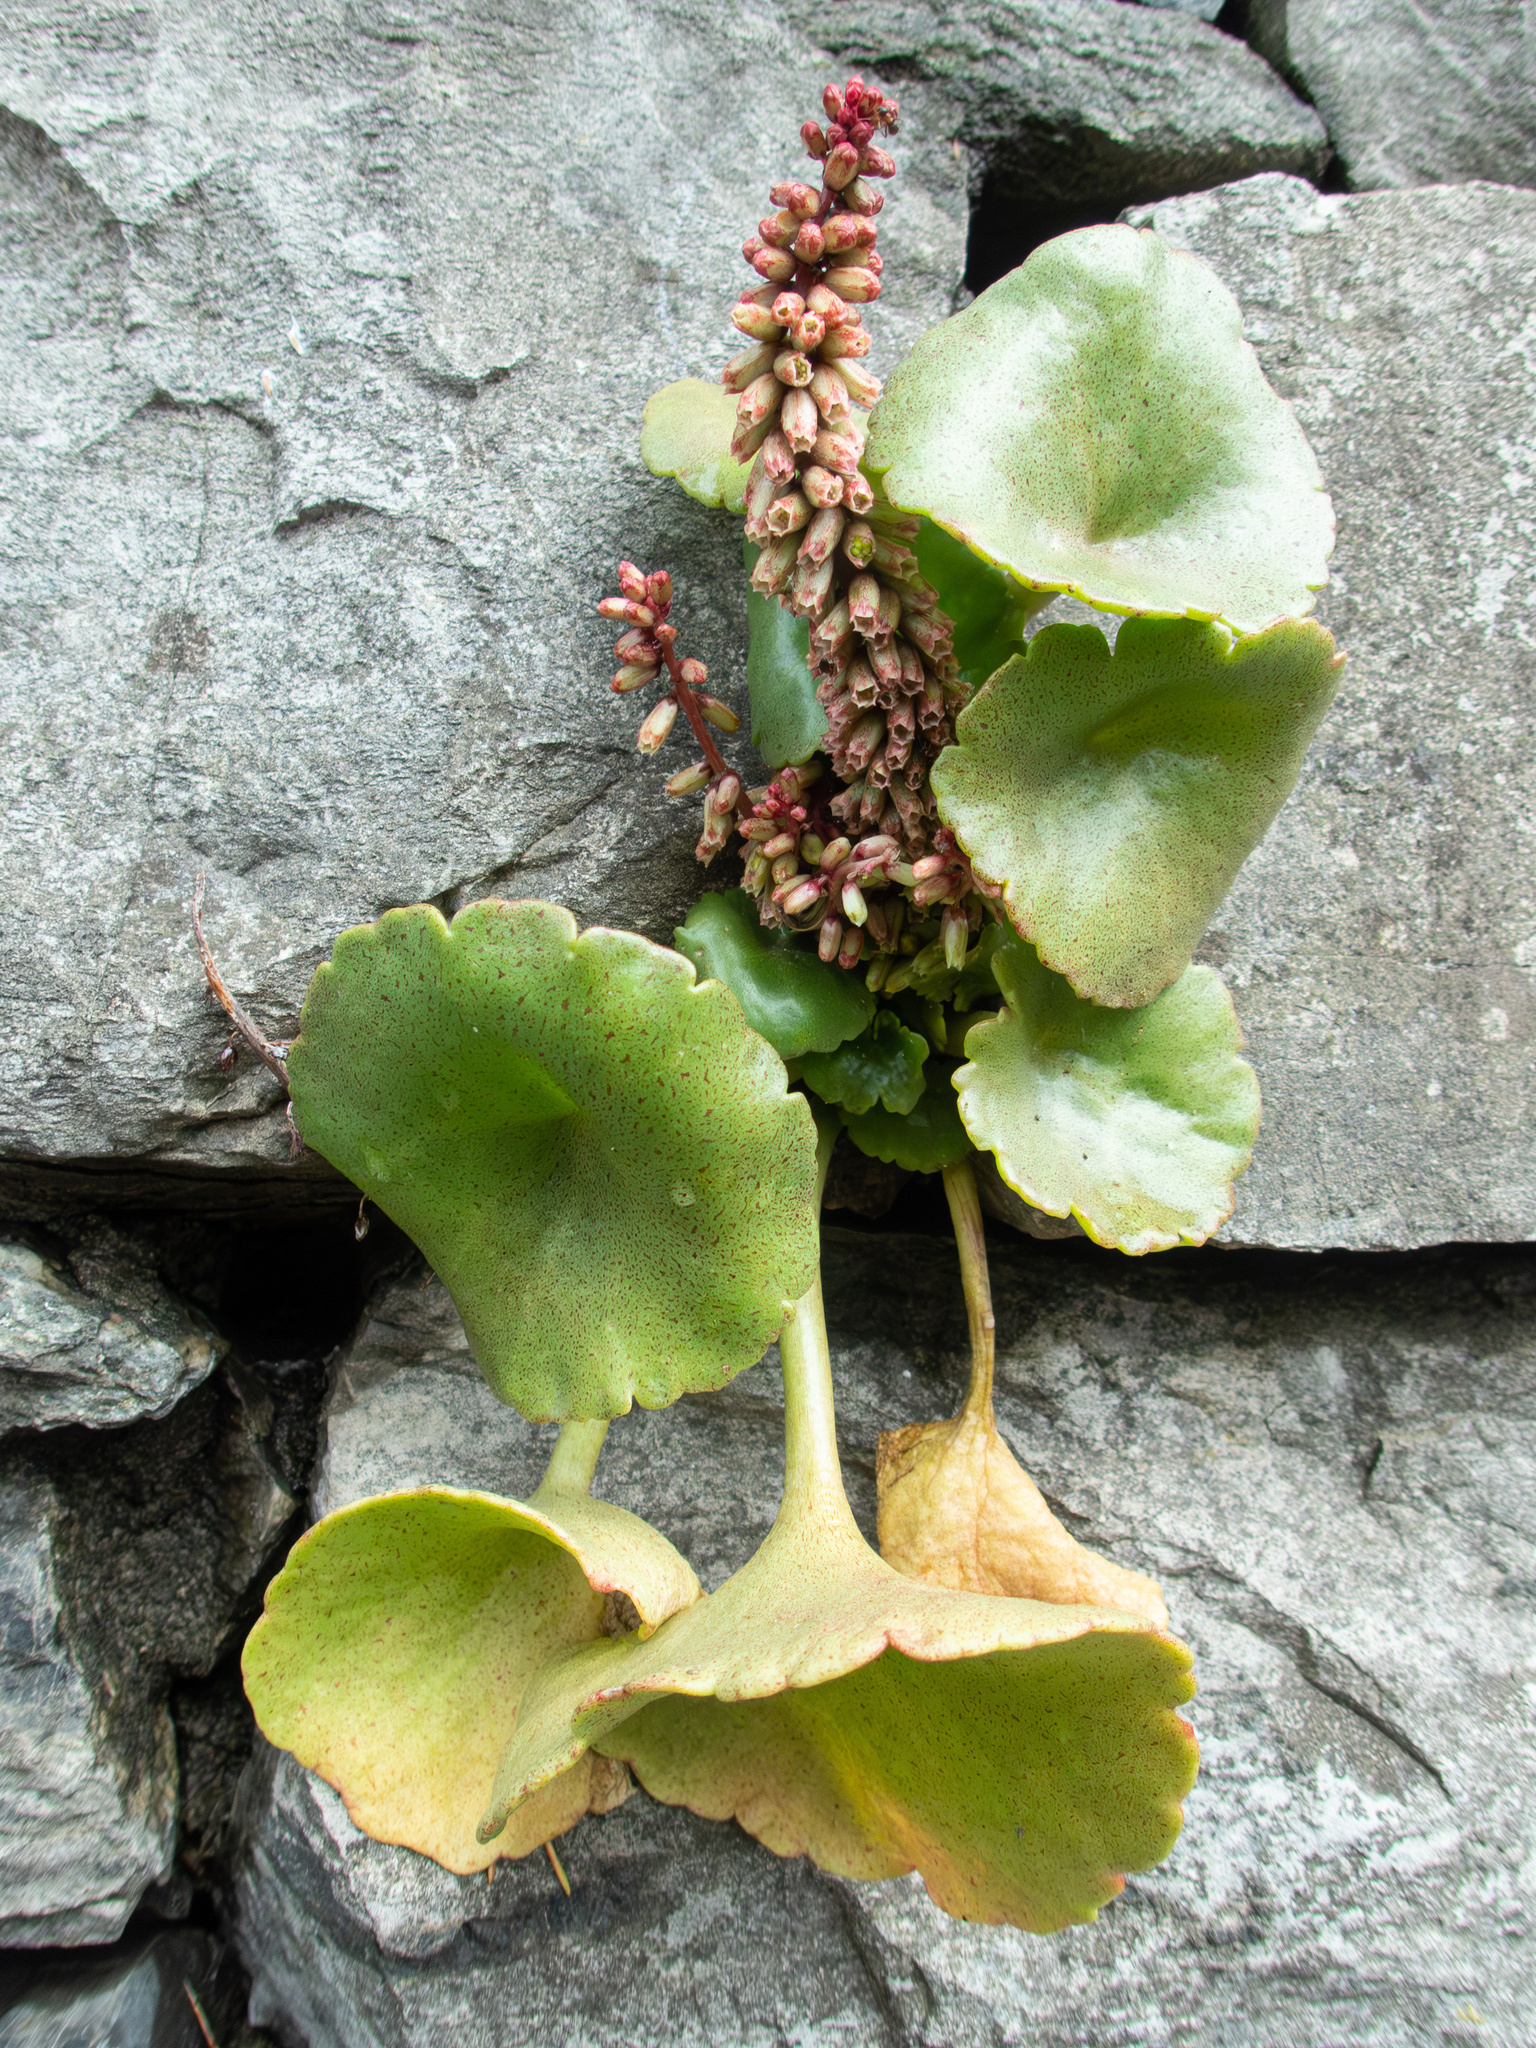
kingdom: Plantae
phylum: Tracheophyta
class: Magnoliopsida
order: Saxifragales
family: Crassulaceae
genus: Umbilicus
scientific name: Umbilicus rupestris
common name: Navelwort
